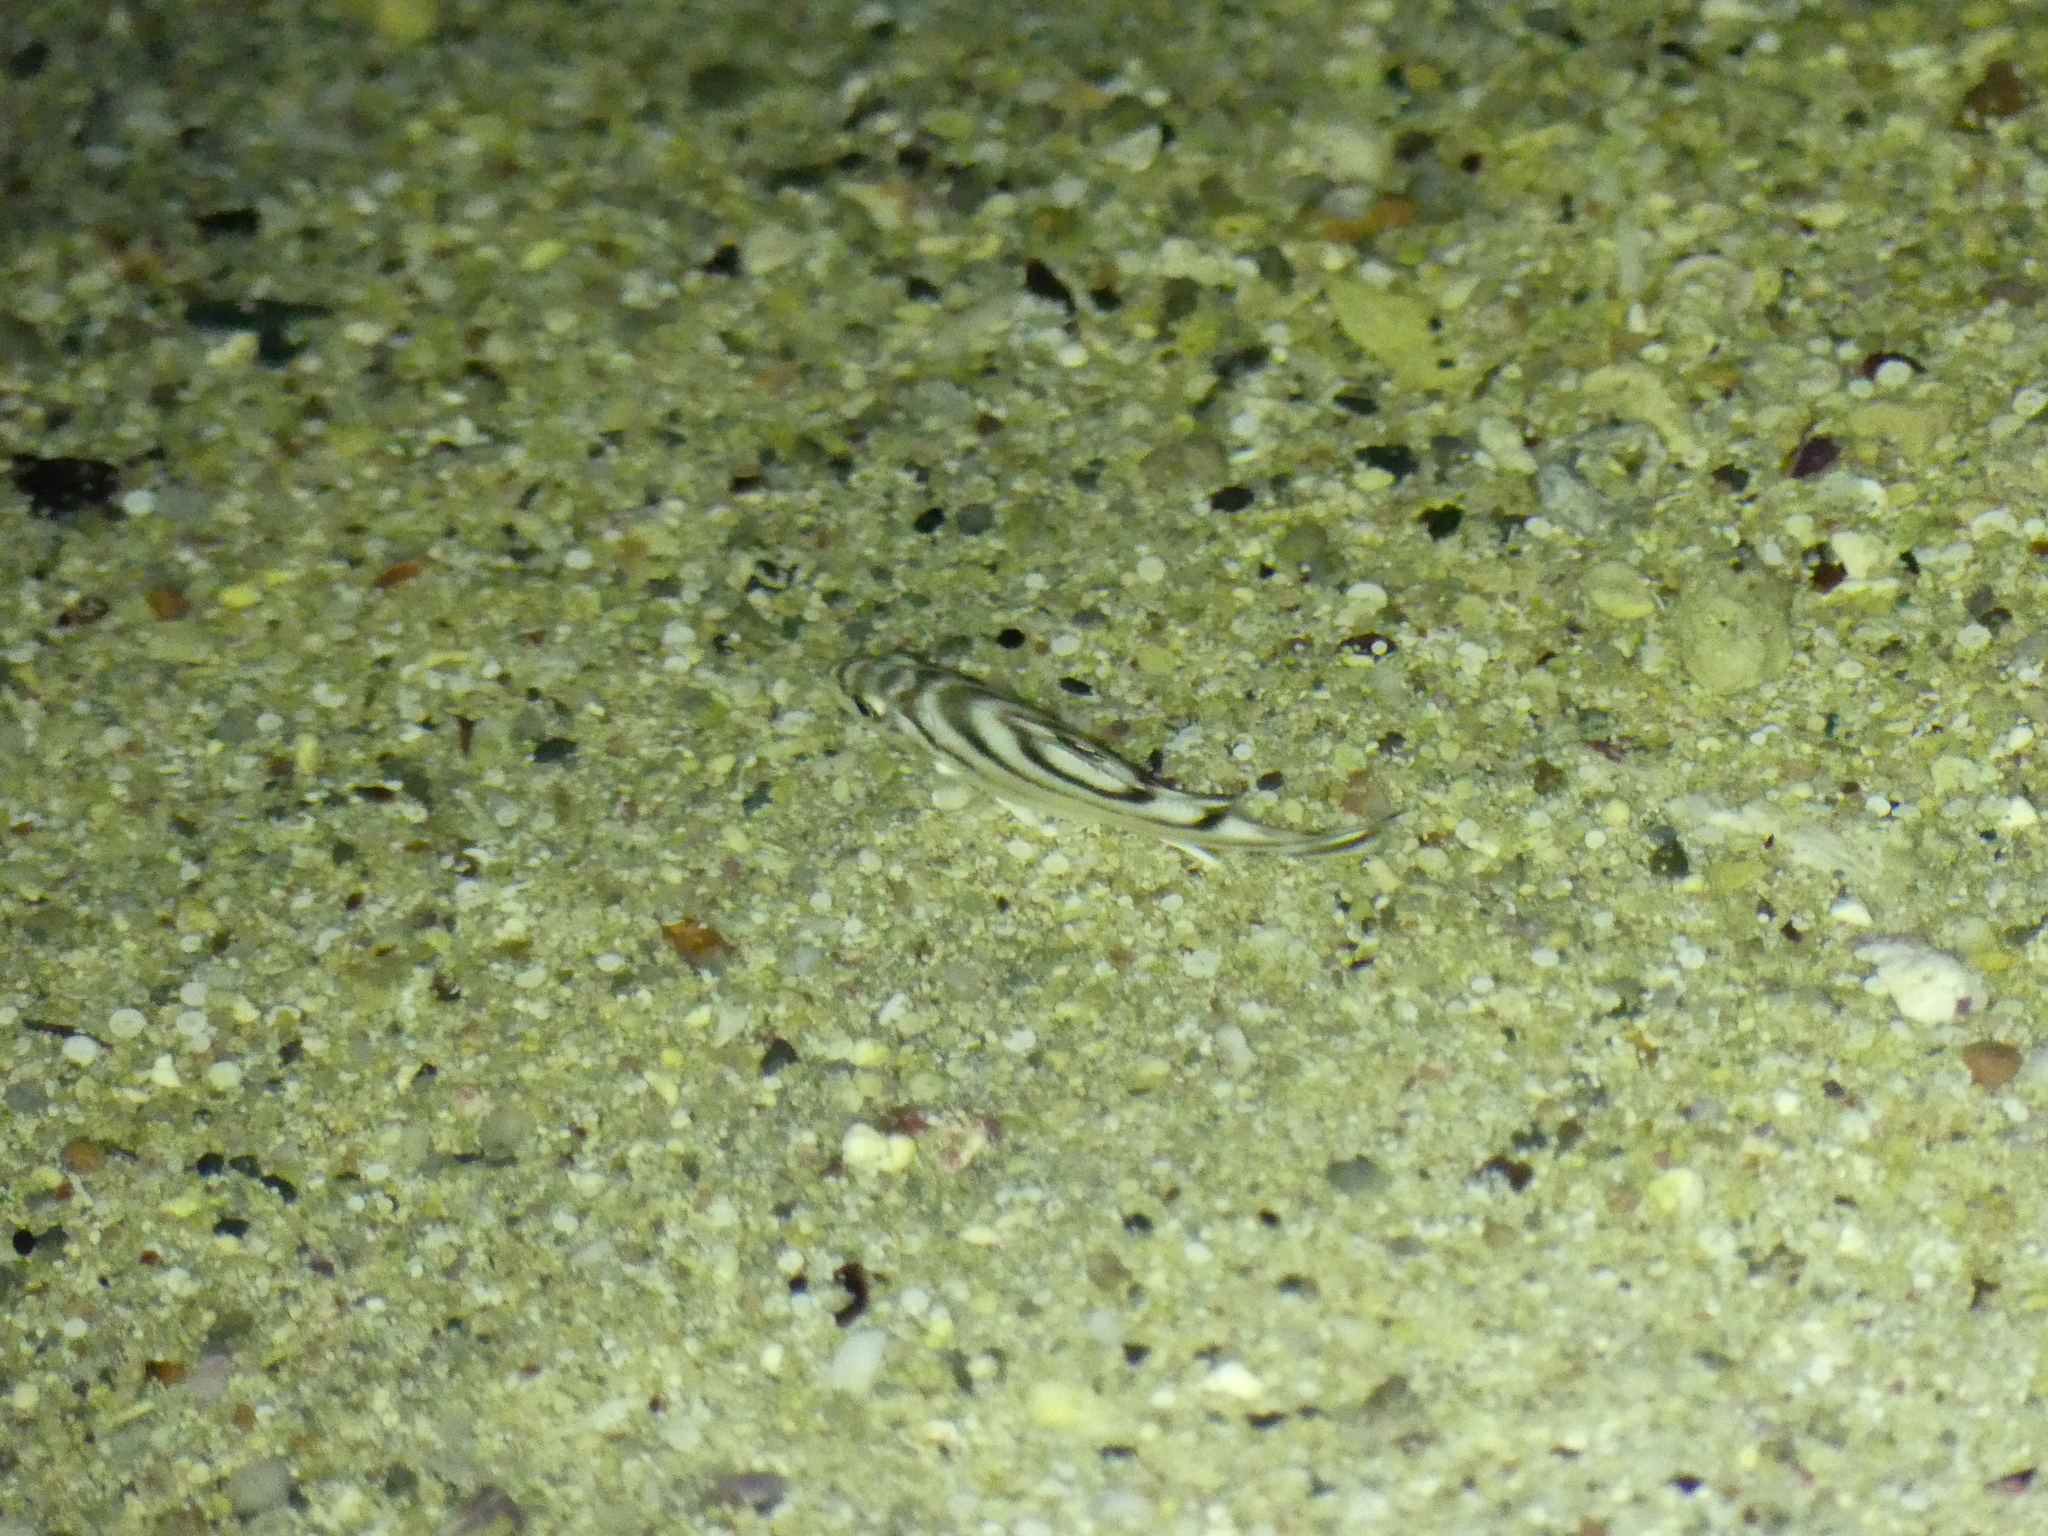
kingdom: Animalia
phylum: Chordata
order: Perciformes
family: Terapontidae
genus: Terapon
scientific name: Terapon jarbua
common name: Jarbua terapon
